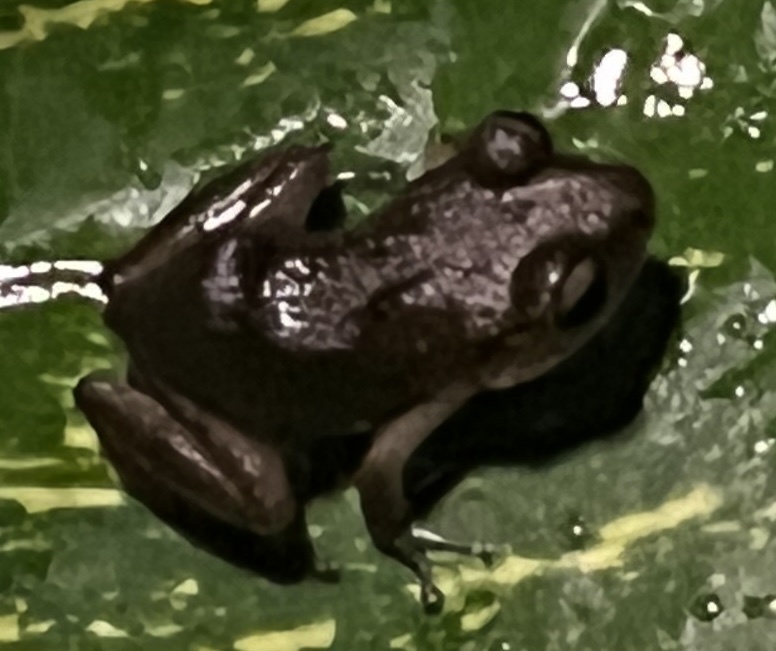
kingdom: Animalia
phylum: Chordata
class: Amphibia
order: Anura
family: Eleutherodactylidae
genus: Eleutherodactylus
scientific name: Eleutherodactylus montserratae
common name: Montserrat whistling frog
